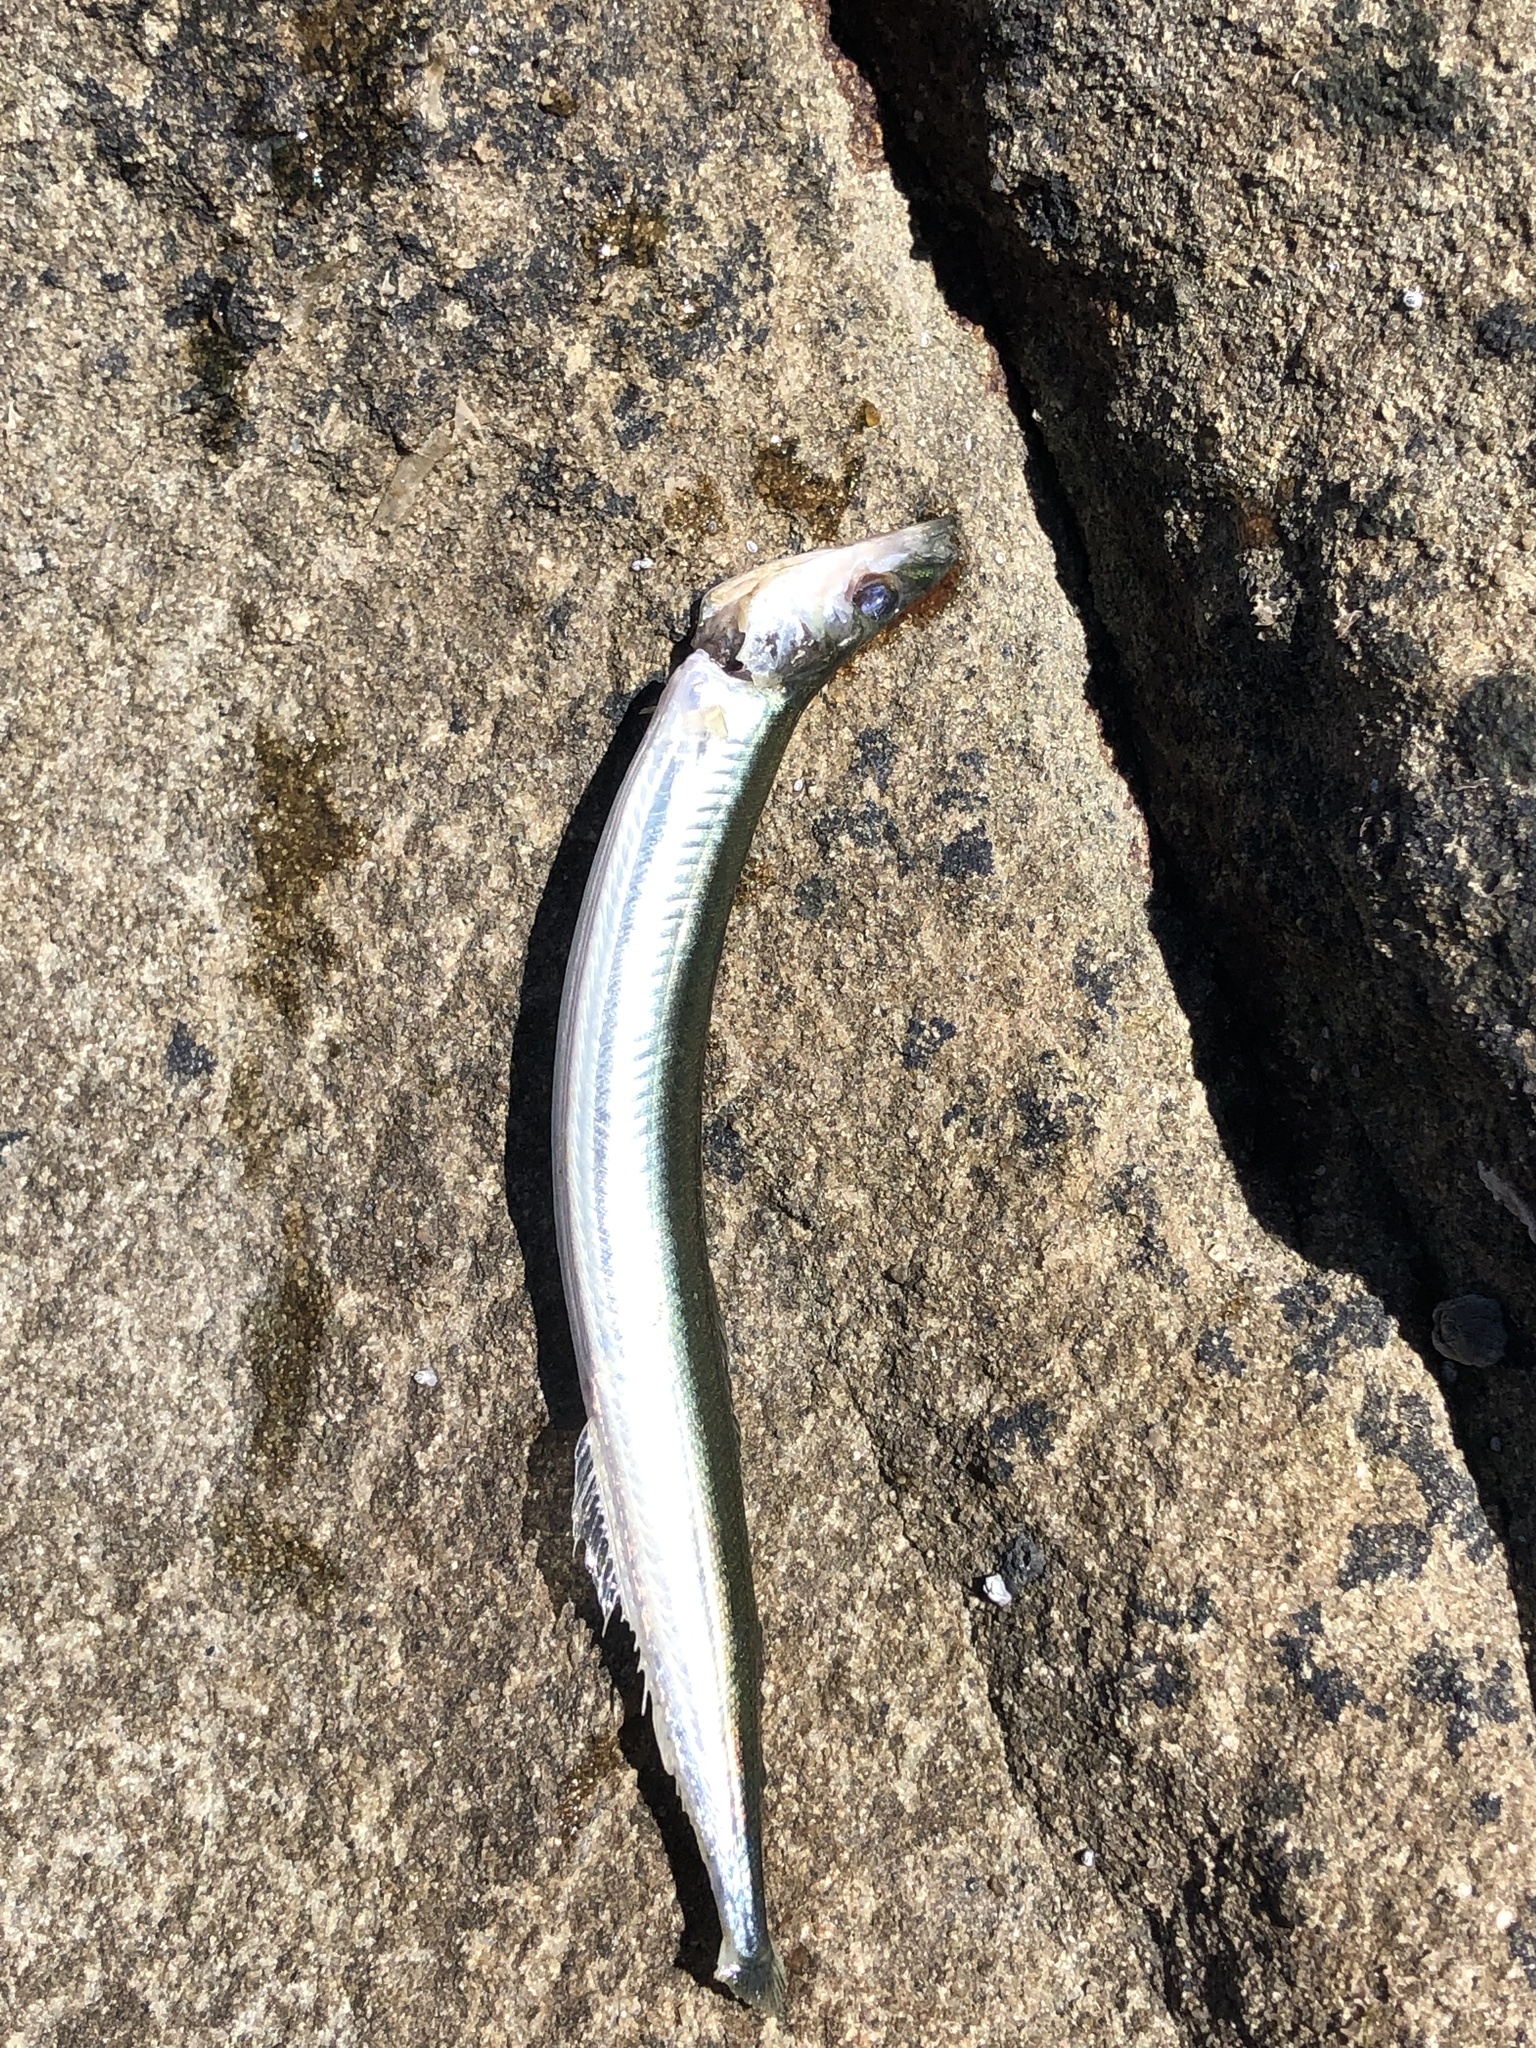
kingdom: Animalia
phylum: Chordata
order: Perciformes
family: Ammodytidae
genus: Ammodytes
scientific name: Ammodytes personatus
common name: Japanese sand lance
